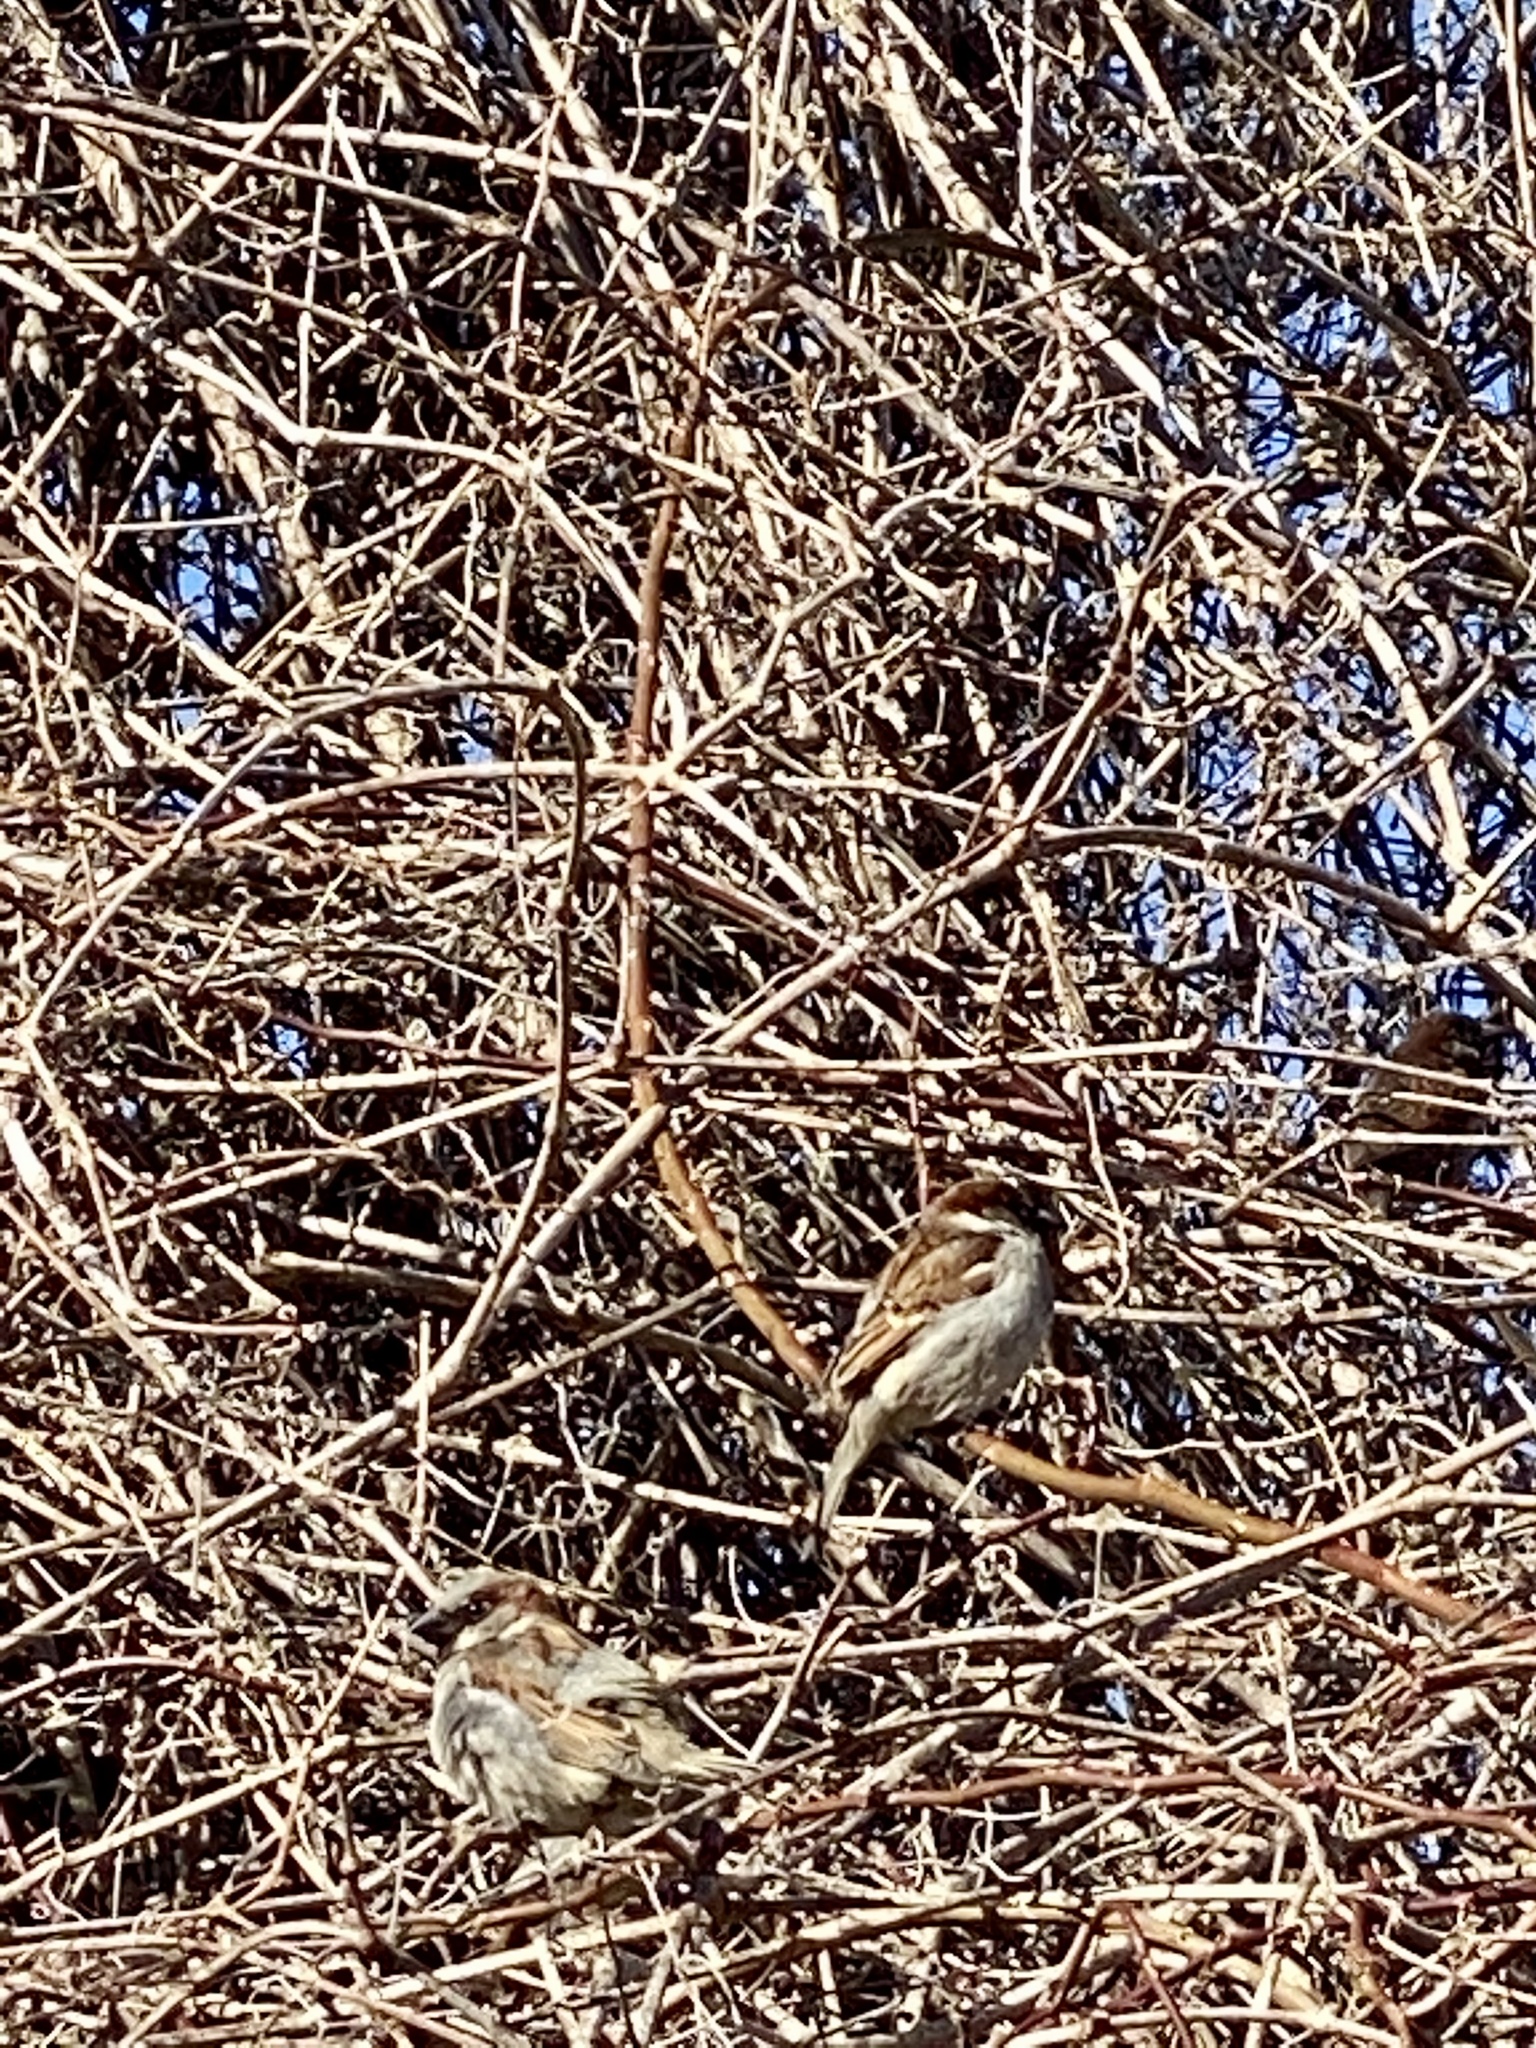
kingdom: Animalia
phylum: Chordata
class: Aves
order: Passeriformes
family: Passeridae
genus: Passer
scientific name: Passer domesticus
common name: House sparrow
